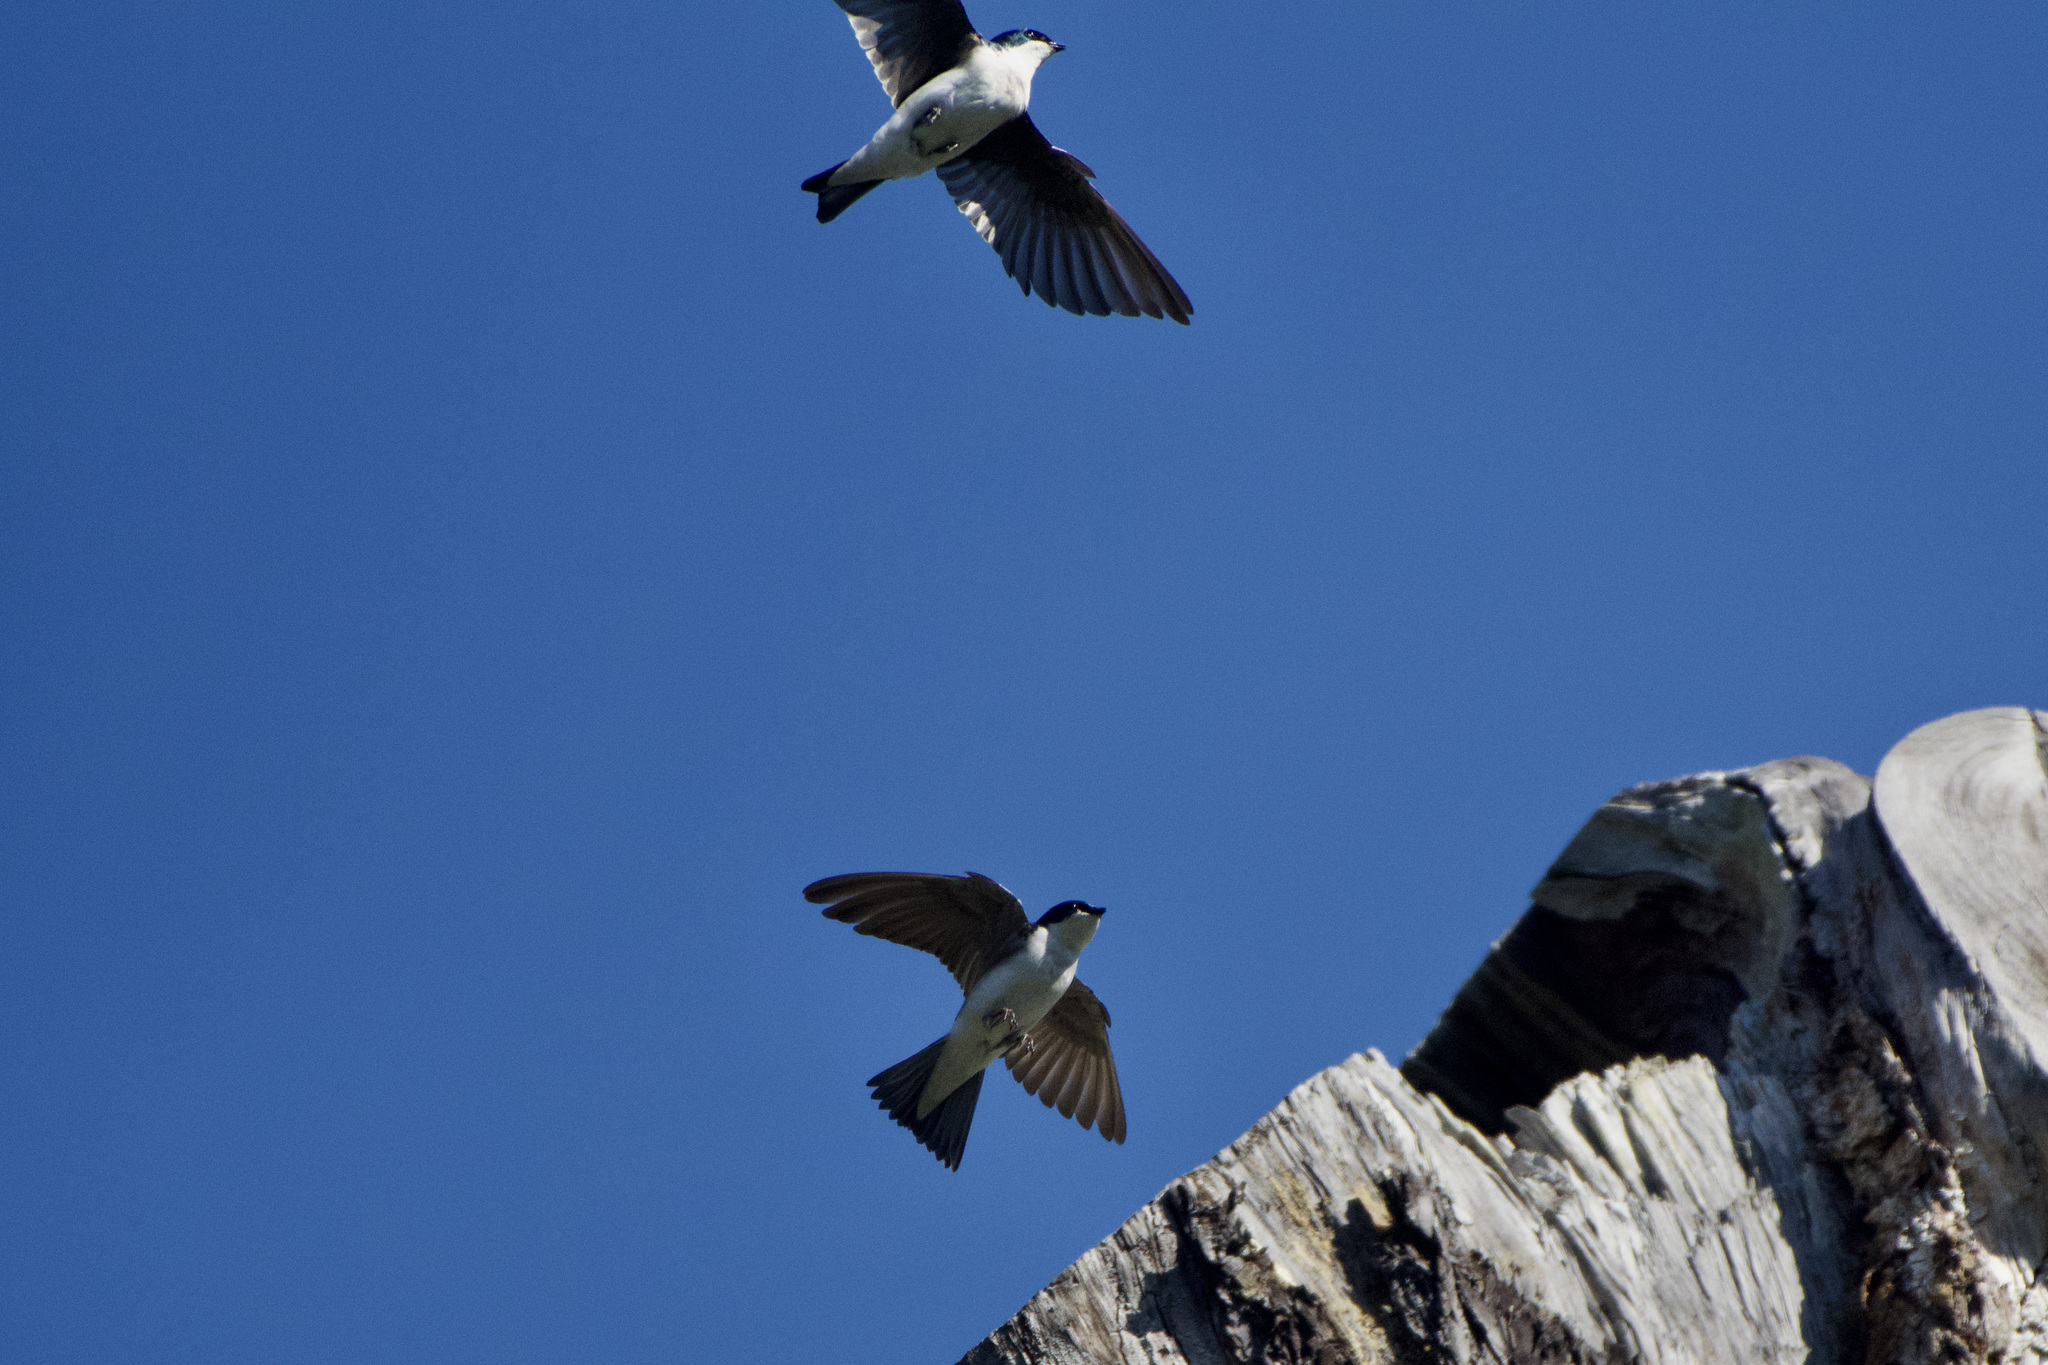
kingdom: Animalia
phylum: Chordata
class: Aves
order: Passeriformes
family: Hirundinidae
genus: Tachycineta
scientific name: Tachycineta bicolor
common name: Tree swallow
